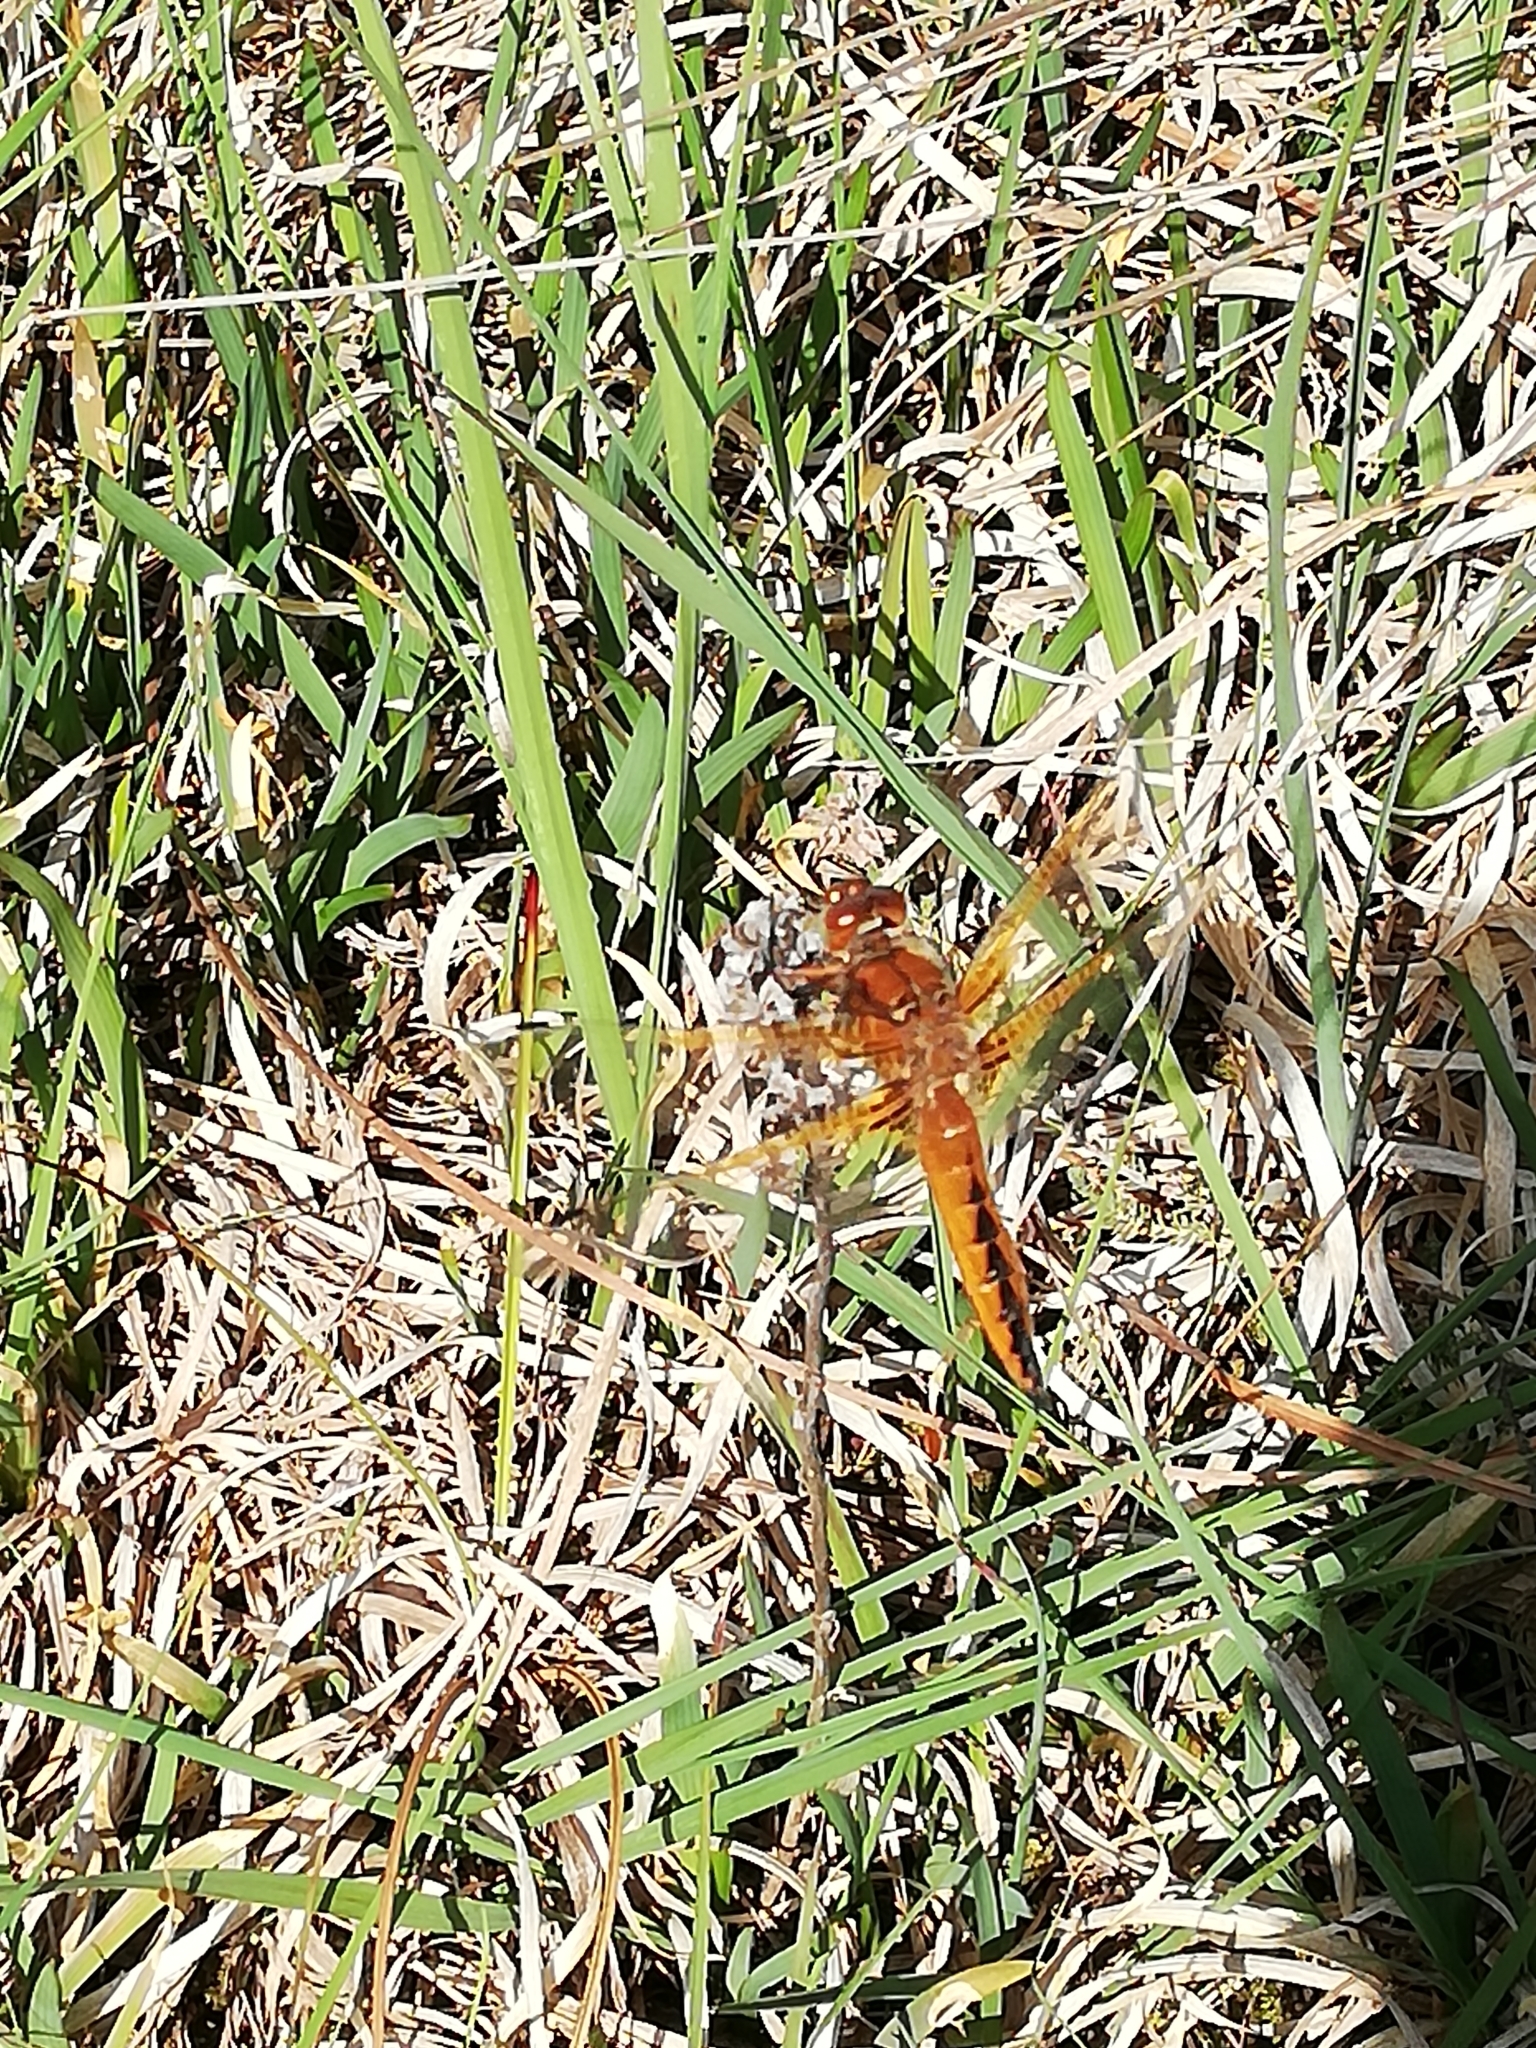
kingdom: Animalia
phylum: Arthropoda
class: Insecta
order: Odonata
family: Libellulidae
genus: Libellula
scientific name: Libellula fulva
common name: Blue chaser
